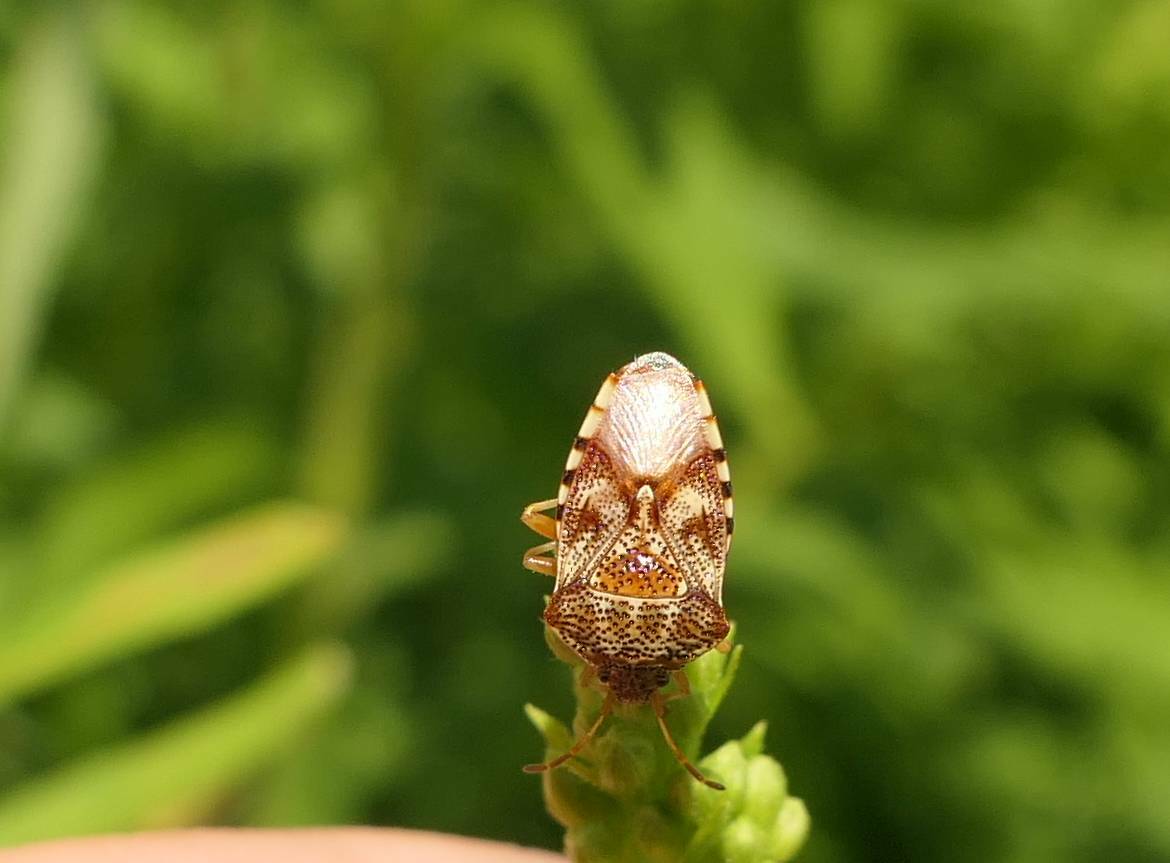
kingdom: Animalia
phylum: Arthropoda
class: Insecta
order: Hemiptera
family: Acanthosomatidae
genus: Elasmucha
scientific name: Elasmucha lateralis
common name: Shield bug
